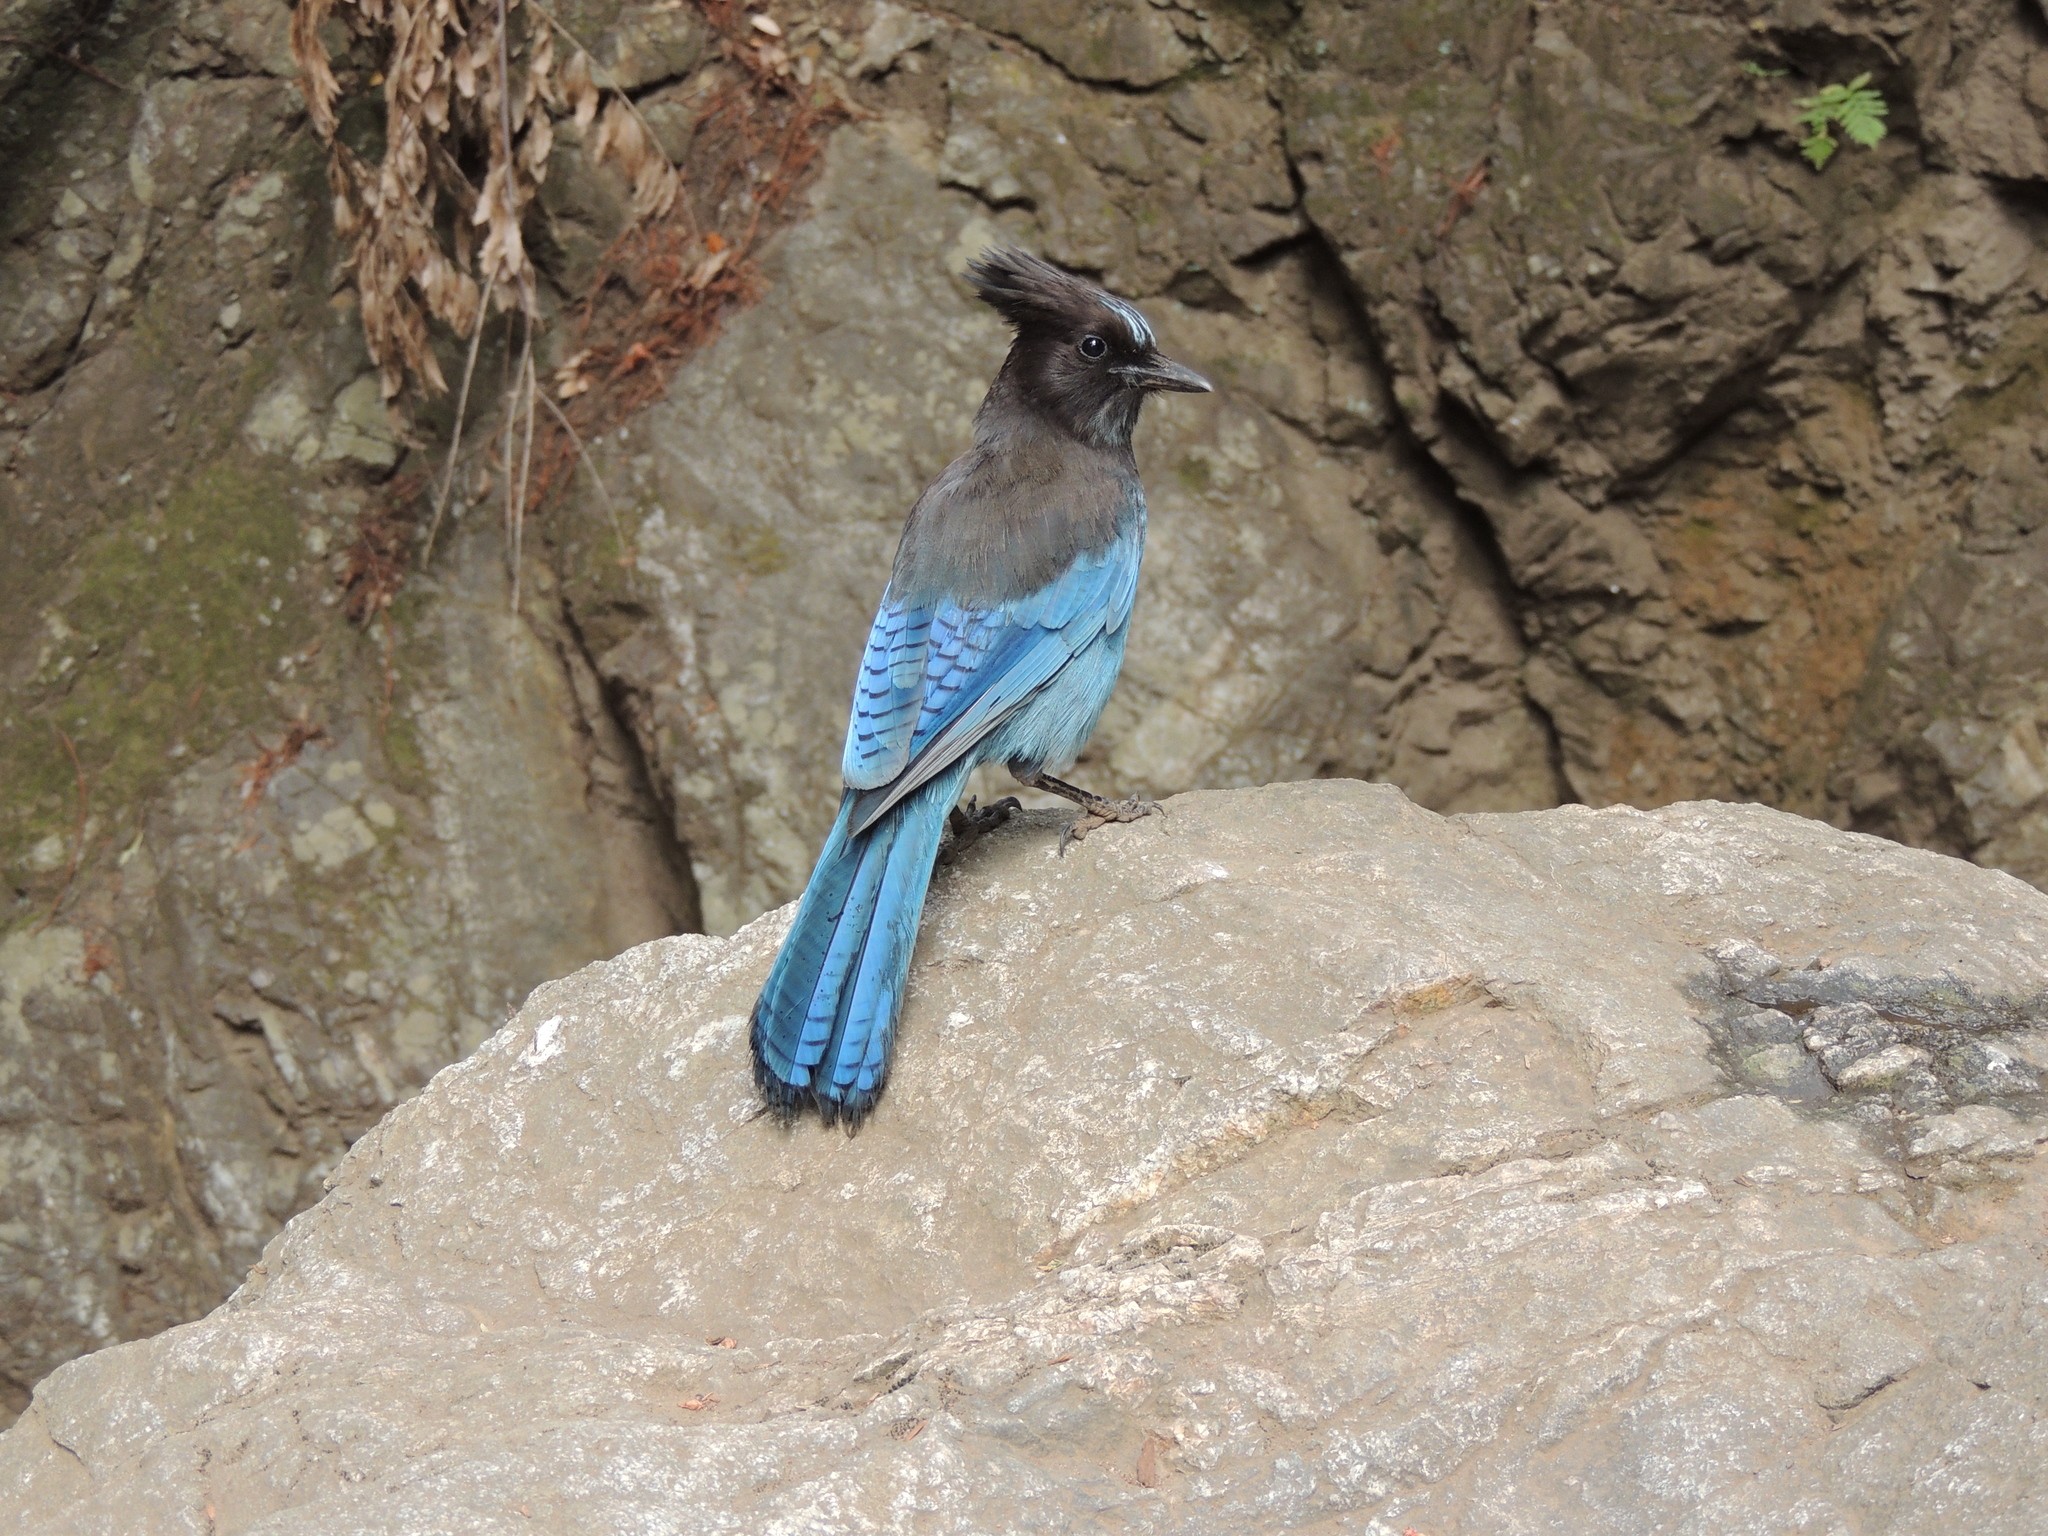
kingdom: Animalia
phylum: Chordata
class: Aves
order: Passeriformes
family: Corvidae
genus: Cyanocitta
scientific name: Cyanocitta stelleri
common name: Steller's jay
